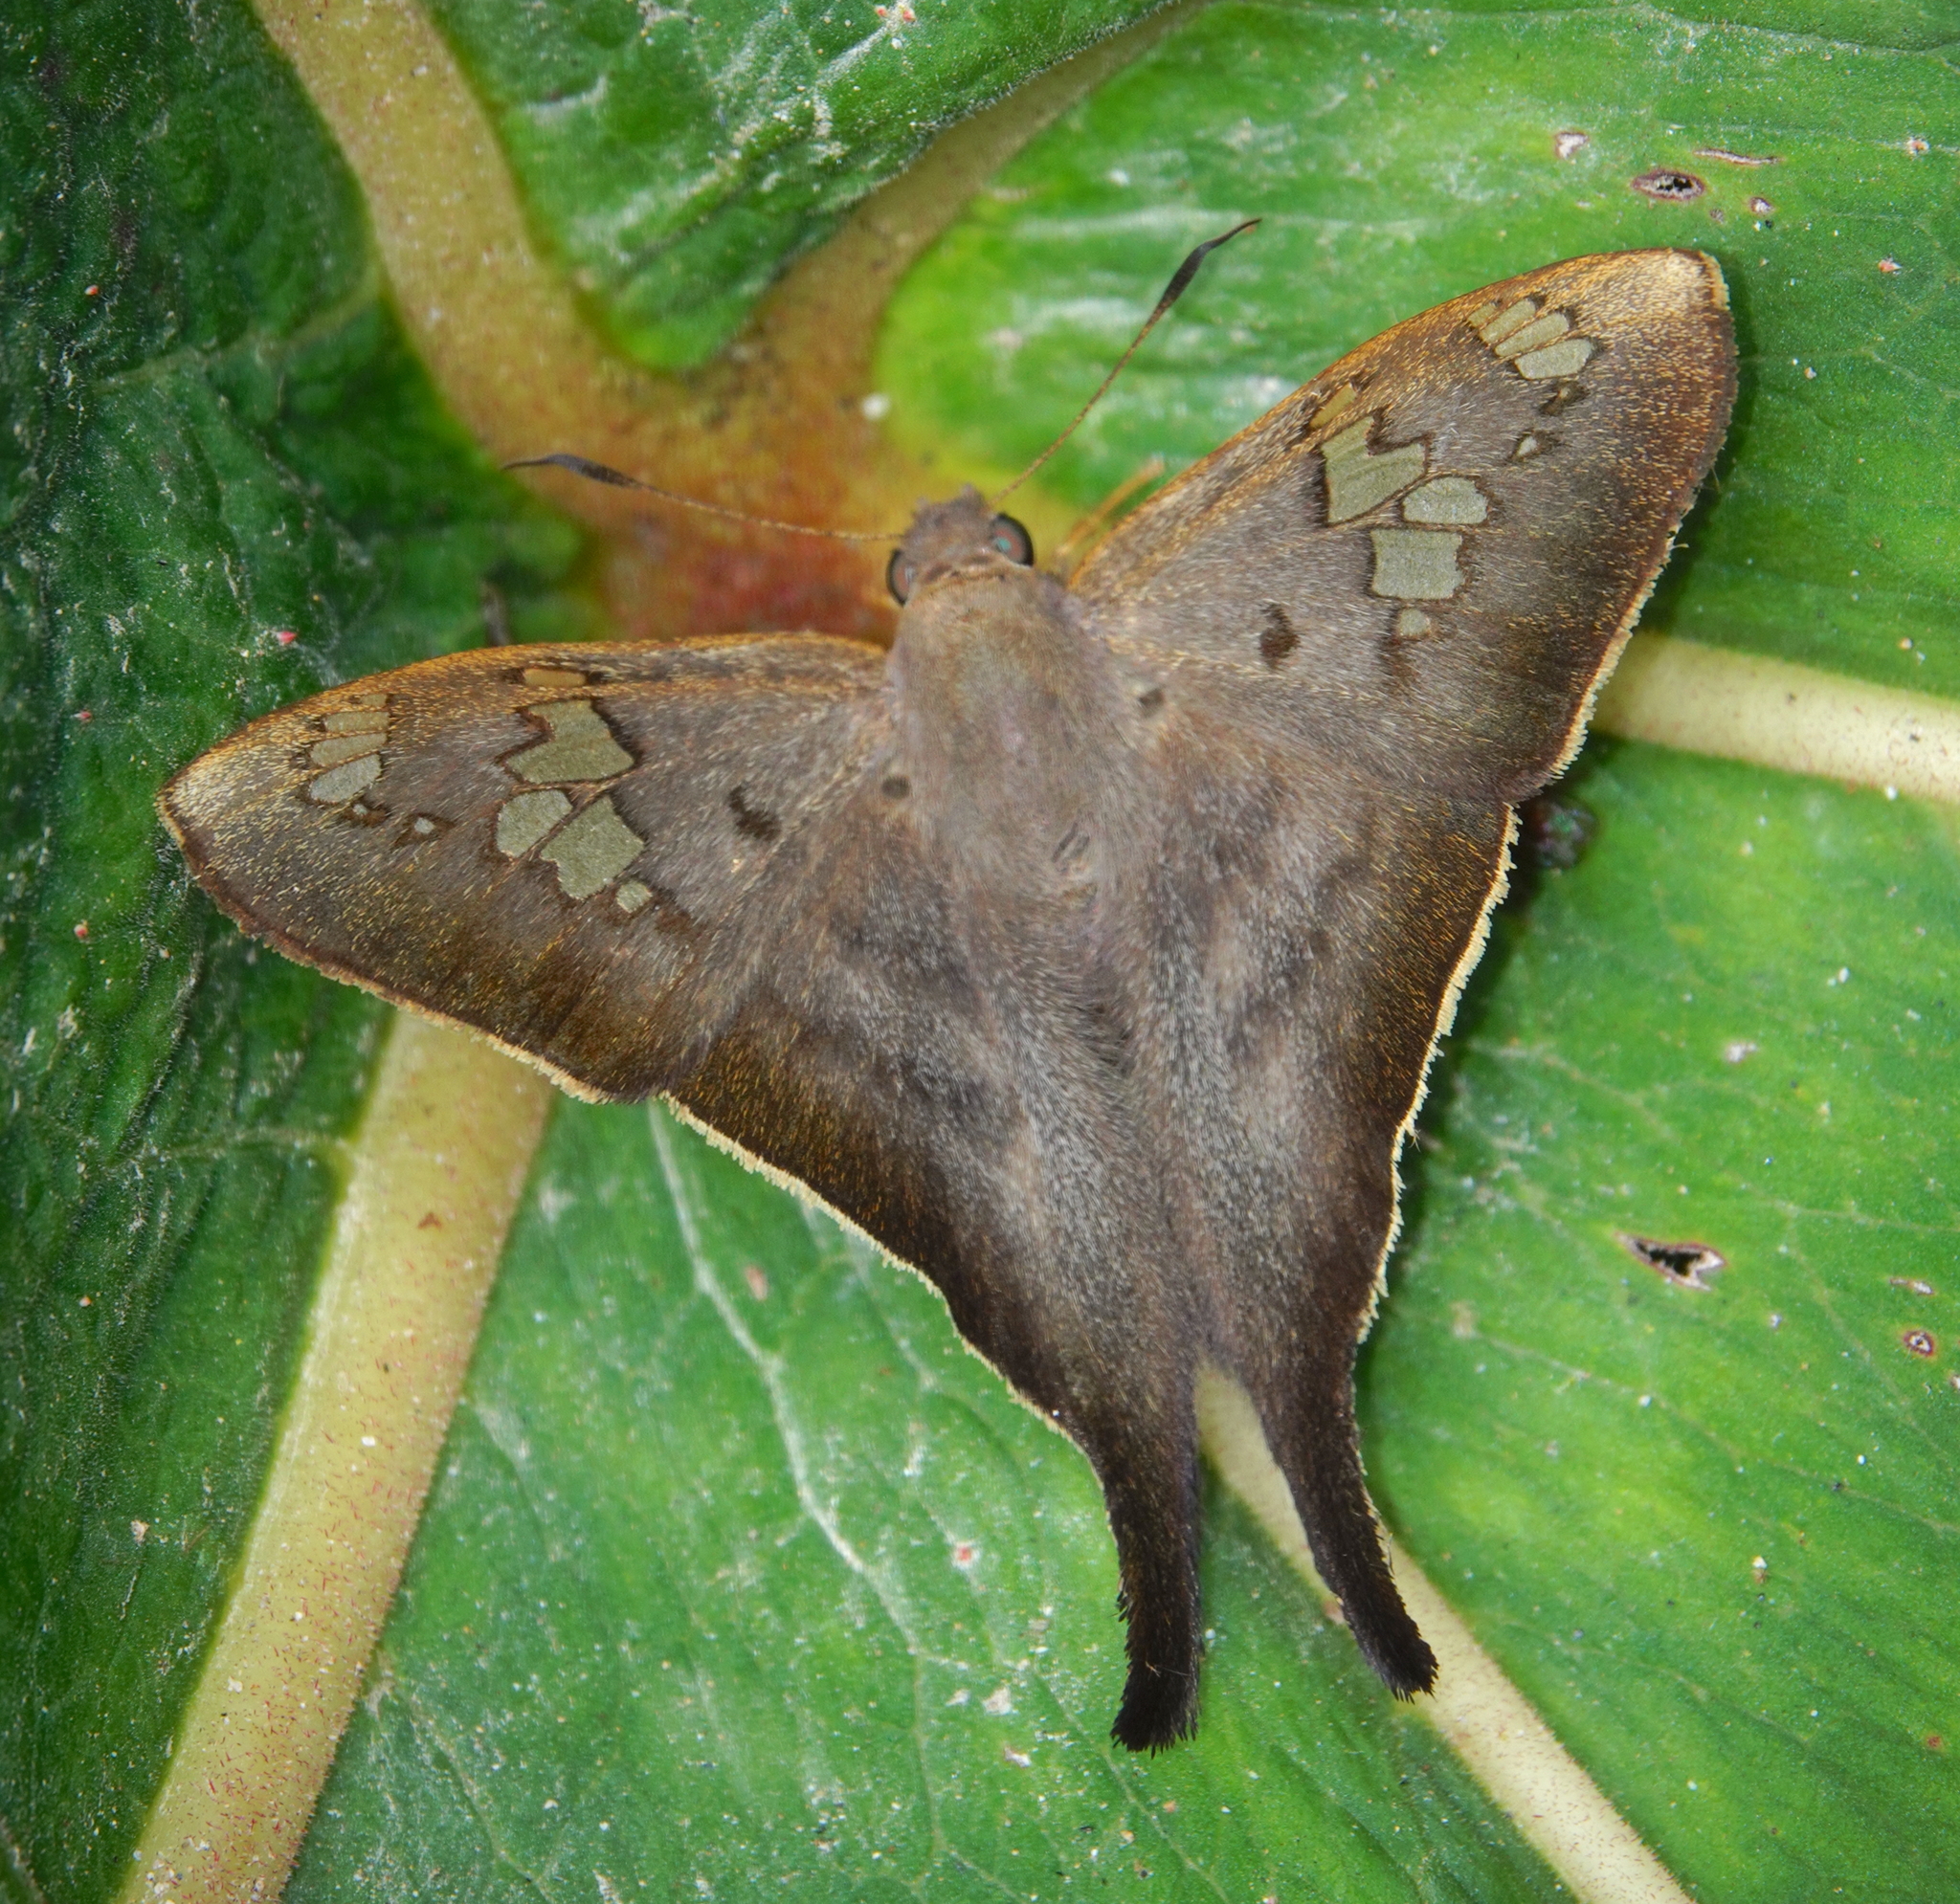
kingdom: Animalia
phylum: Arthropoda
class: Insecta
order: Lepidoptera
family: Hesperiidae
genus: Ectomis
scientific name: Ectomis
